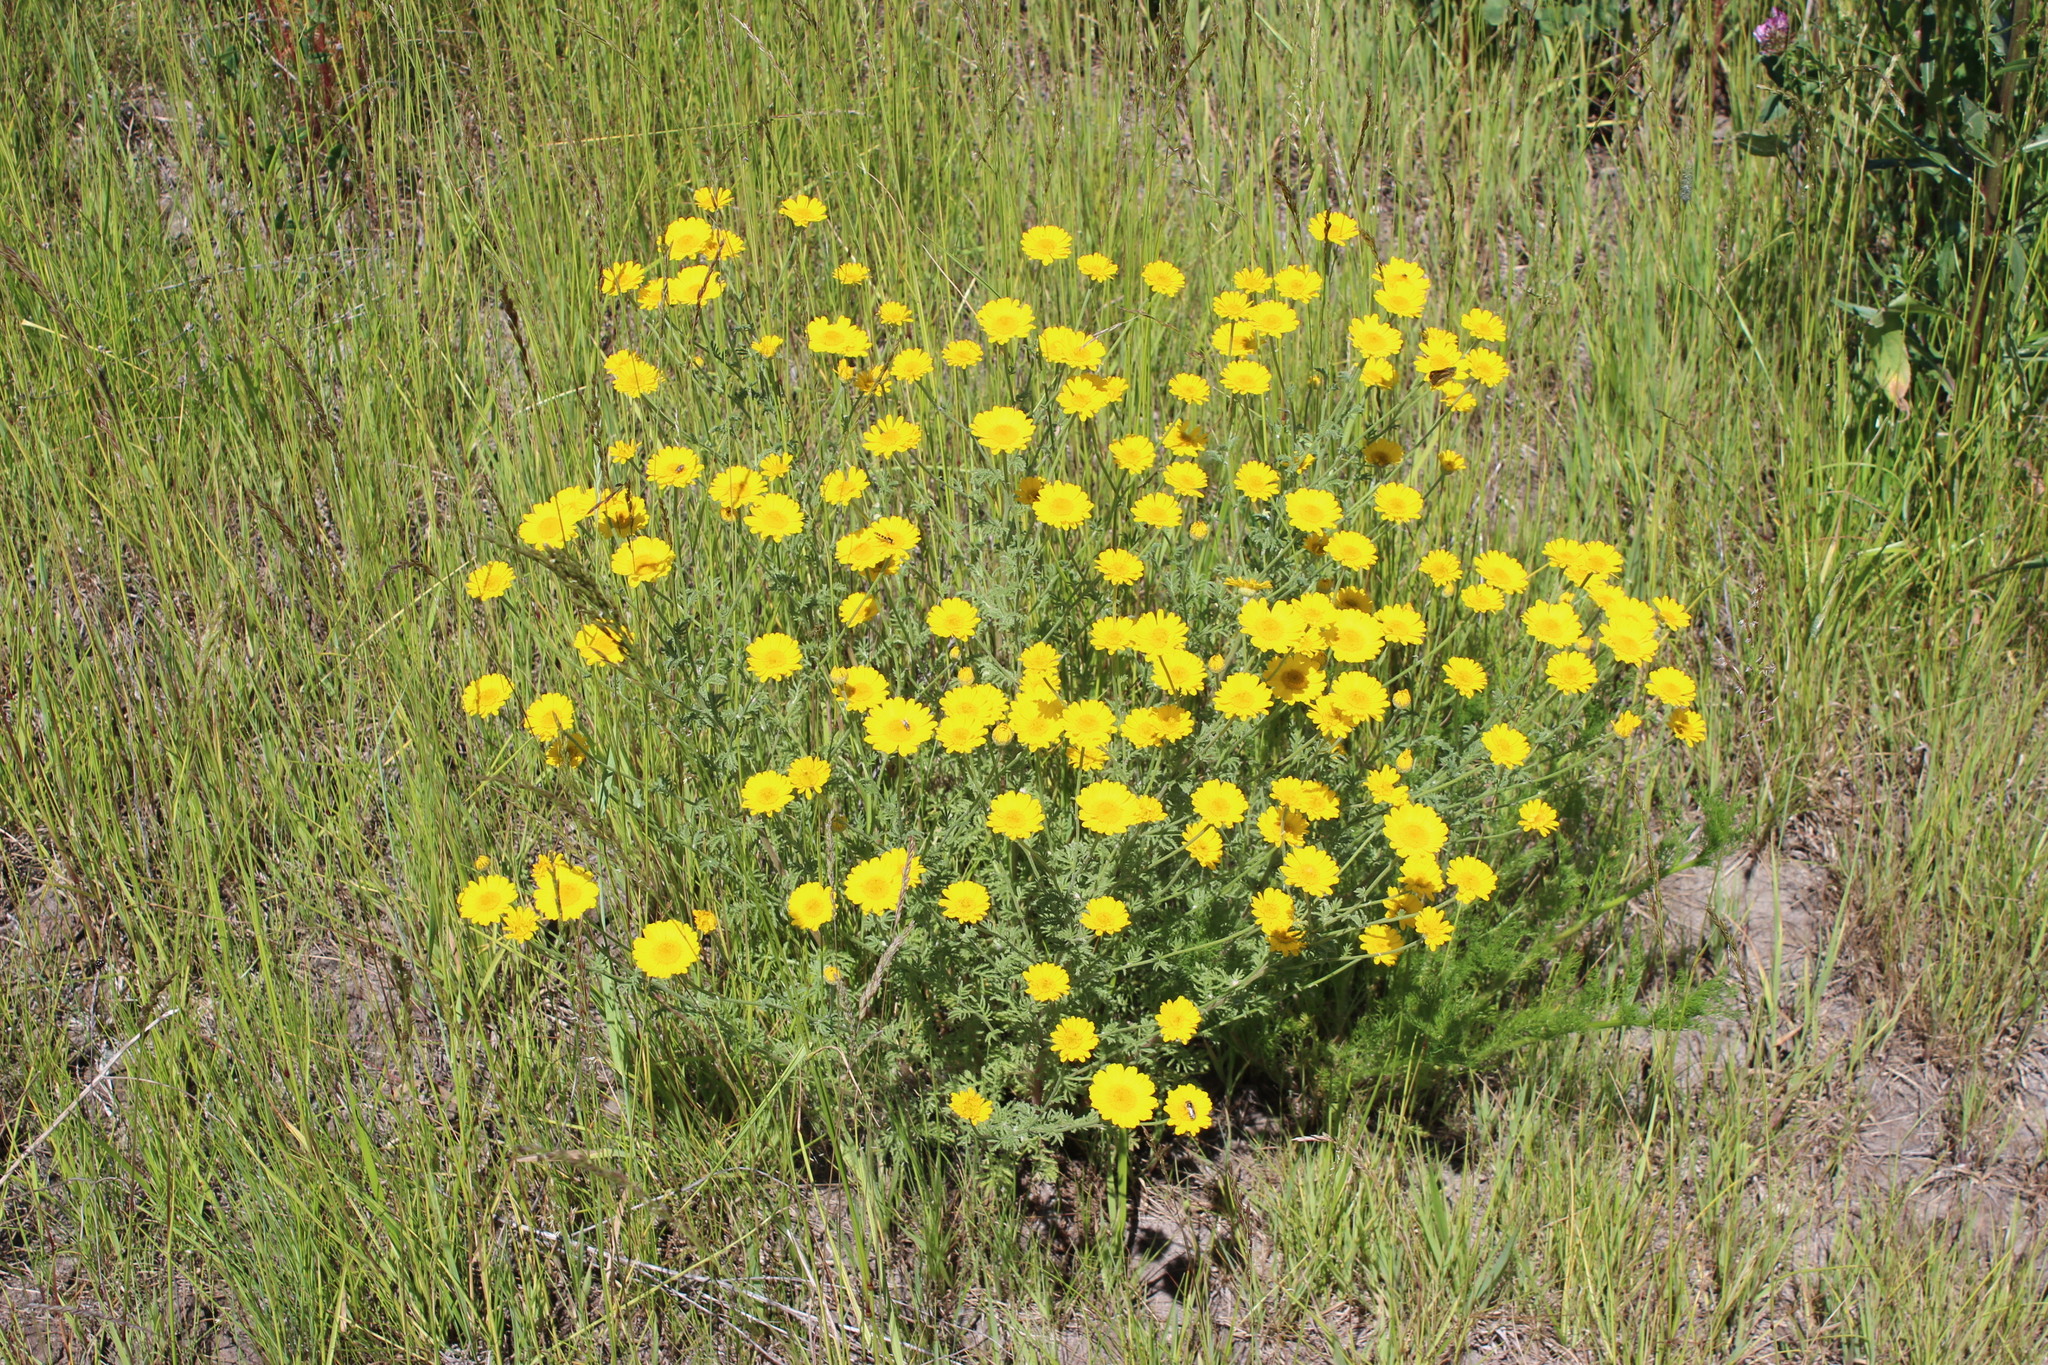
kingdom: Plantae
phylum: Tracheophyta
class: Magnoliopsida
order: Asterales
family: Asteraceae
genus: Cota
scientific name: Cota tinctoria
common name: Golden chamomile
